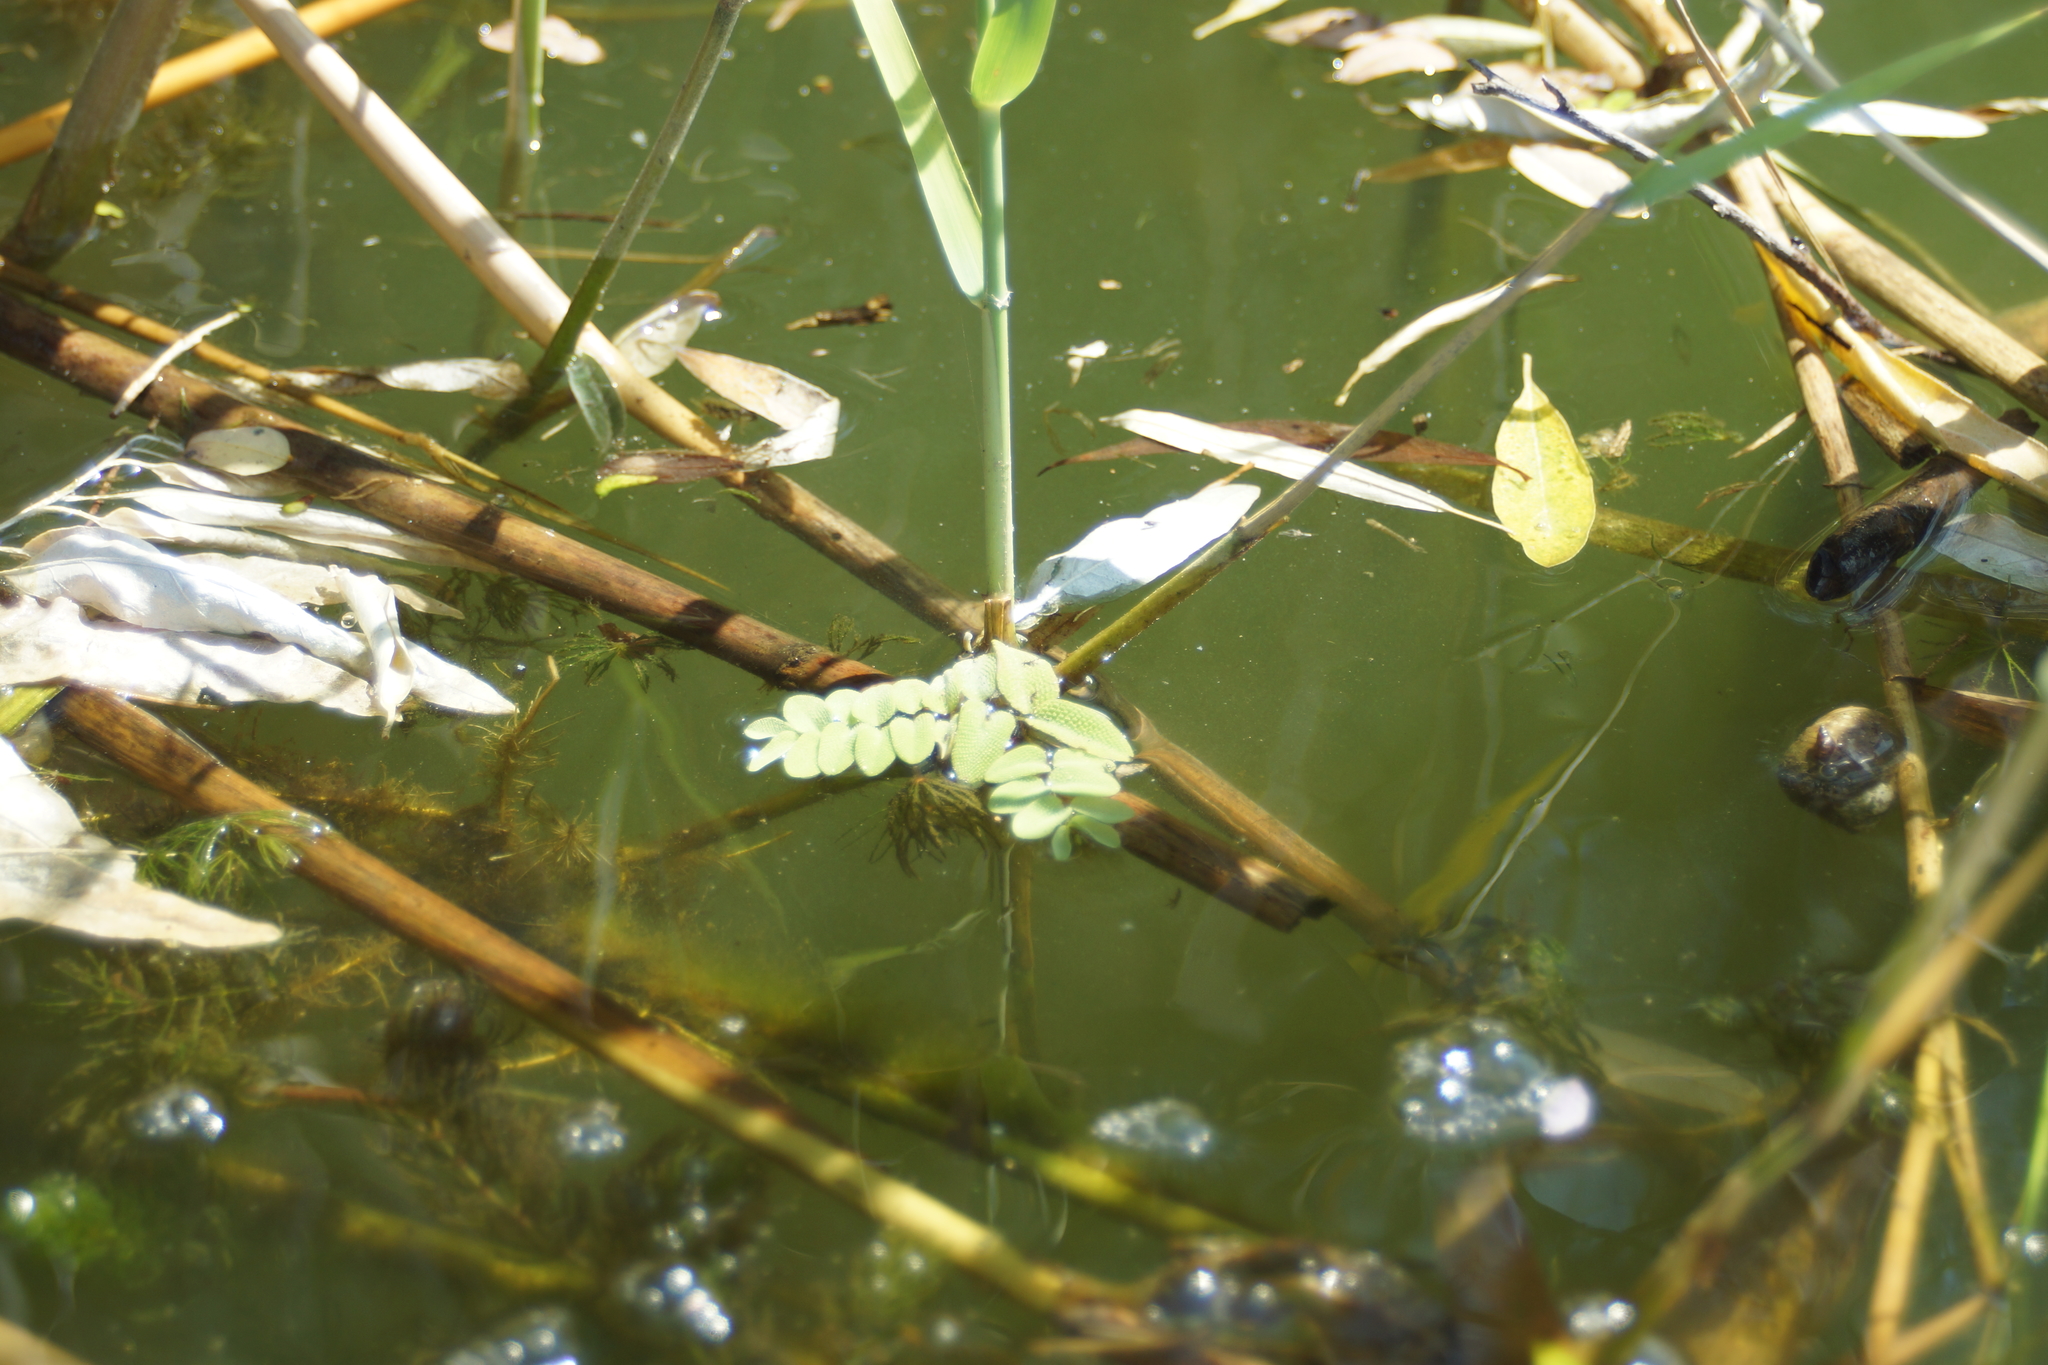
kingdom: Plantae
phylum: Tracheophyta
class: Polypodiopsida
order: Salviniales
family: Salviniaceae
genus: Salvinia
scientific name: Salvinia natans
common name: Floating fern
